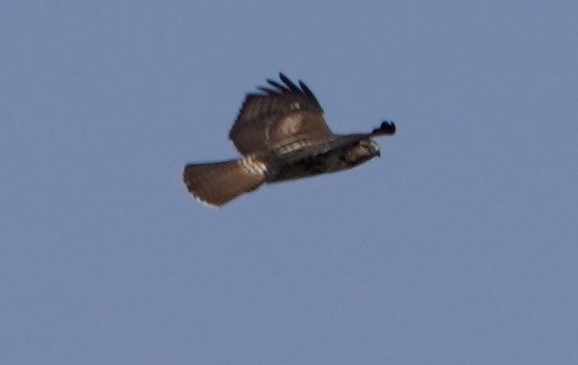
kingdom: Animalia
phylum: Chordata
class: Aves
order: Accipitriformes
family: Accipitridae
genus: Buteo
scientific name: Buteo jamaicensis
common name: Red-tailed hawk
